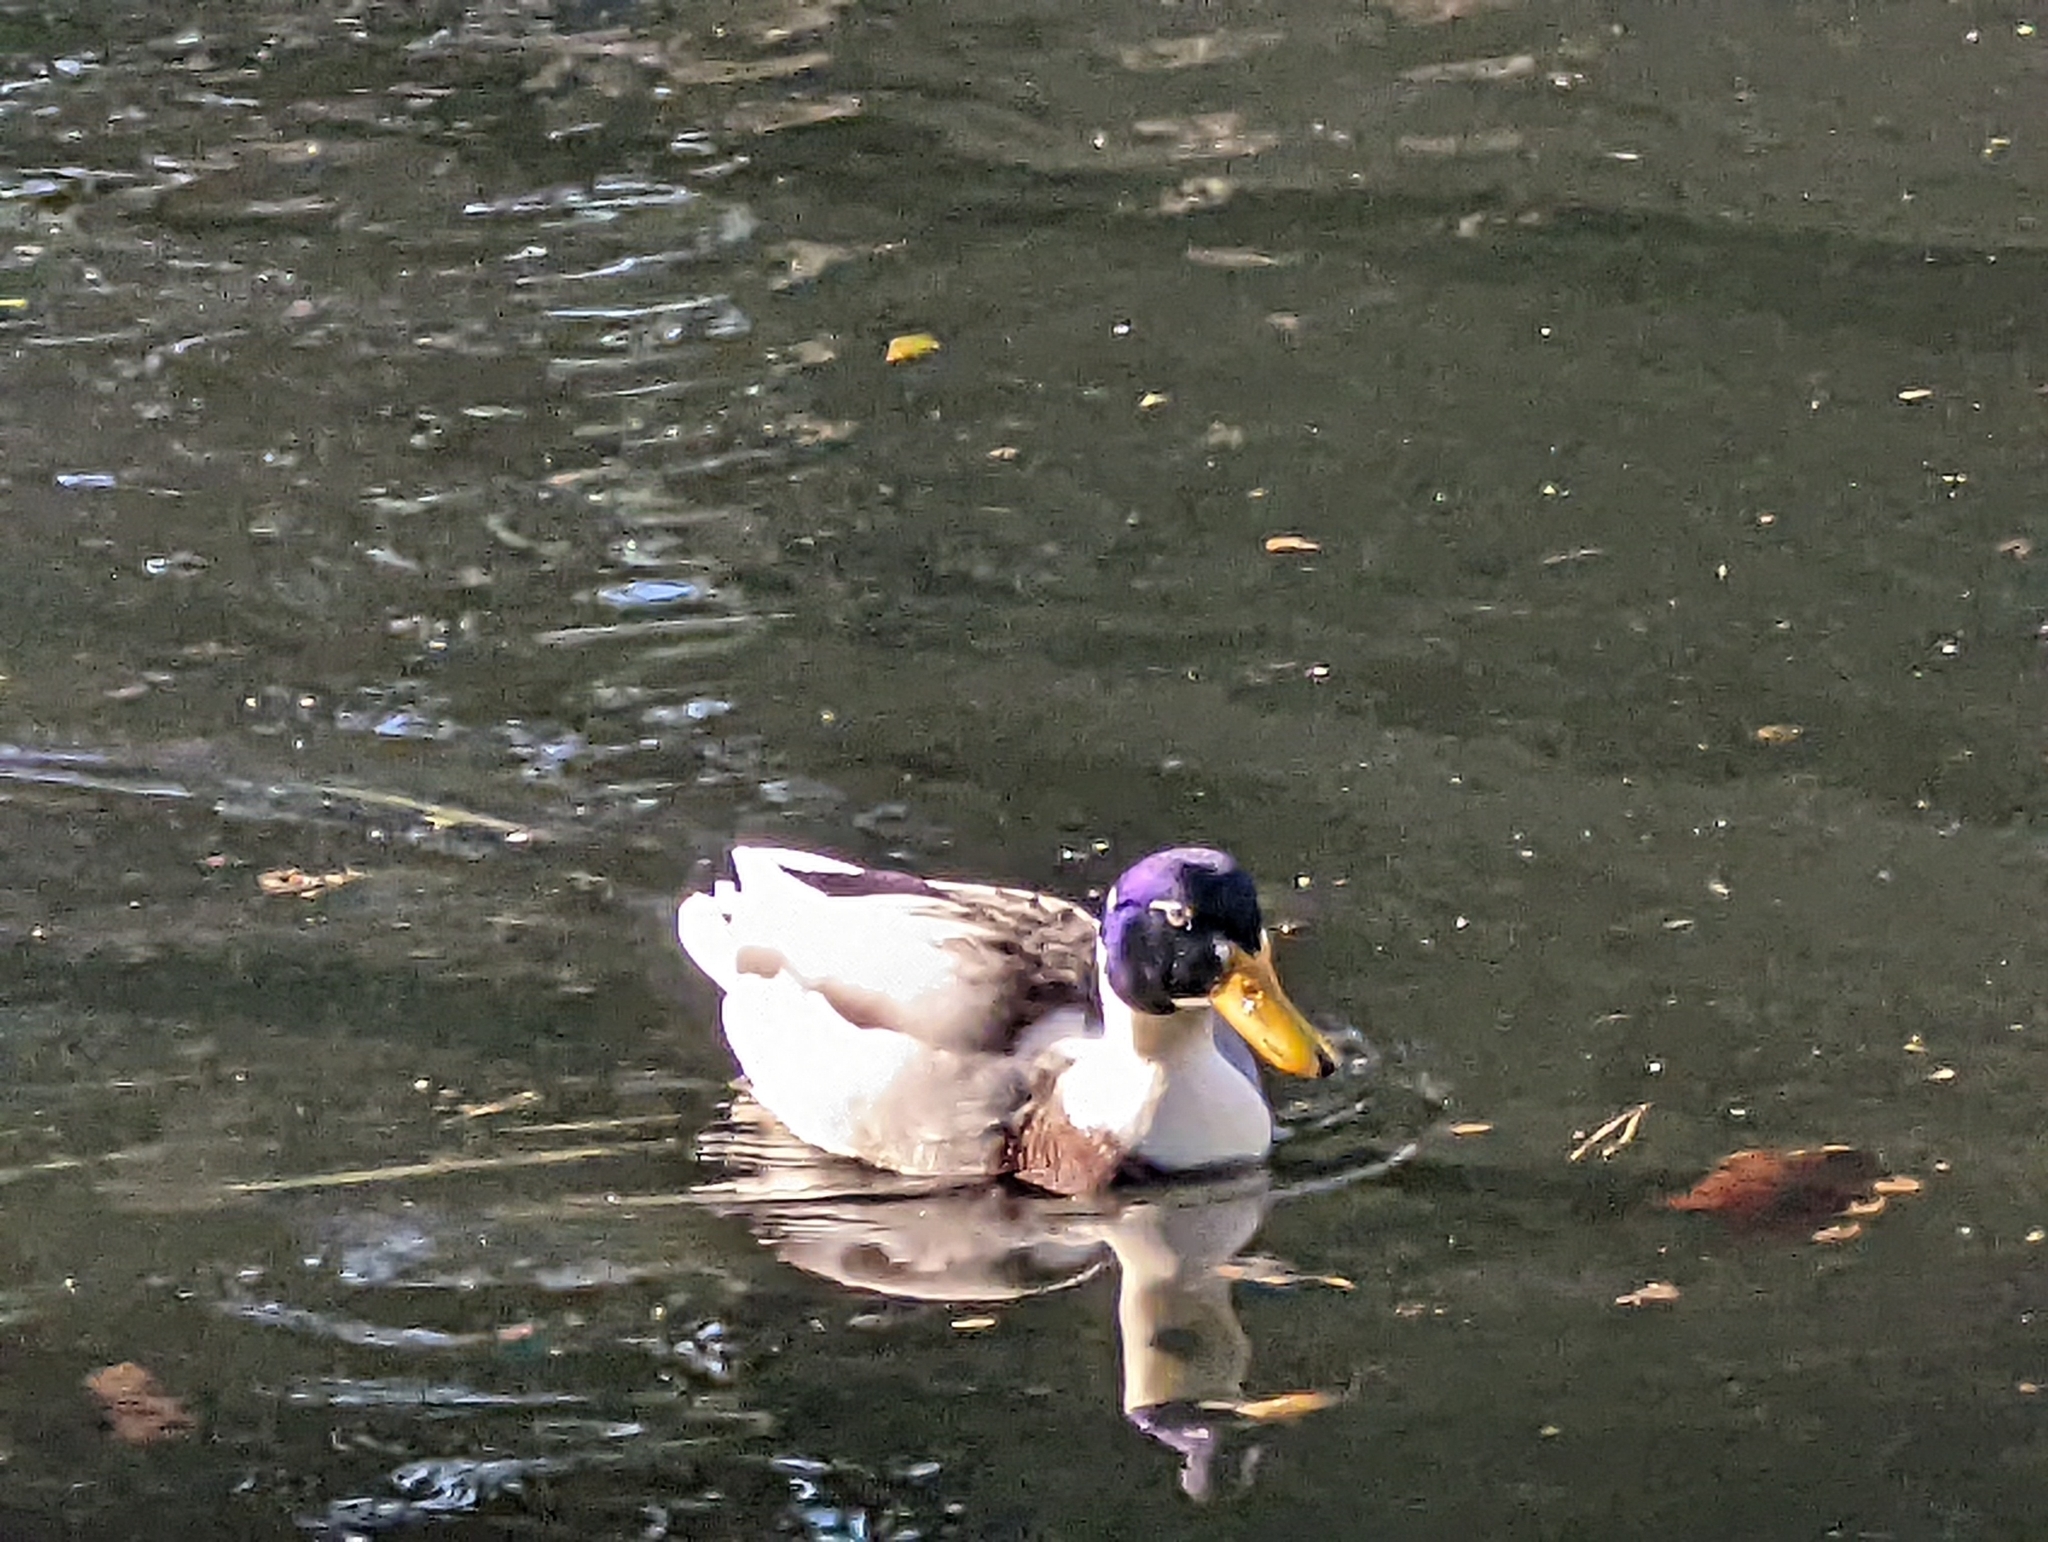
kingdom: Animalia
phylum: Chordata
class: Aves
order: Anseriformes
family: Anatidae
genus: Anas
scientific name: Anas platyrhynchos
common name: Mallard
